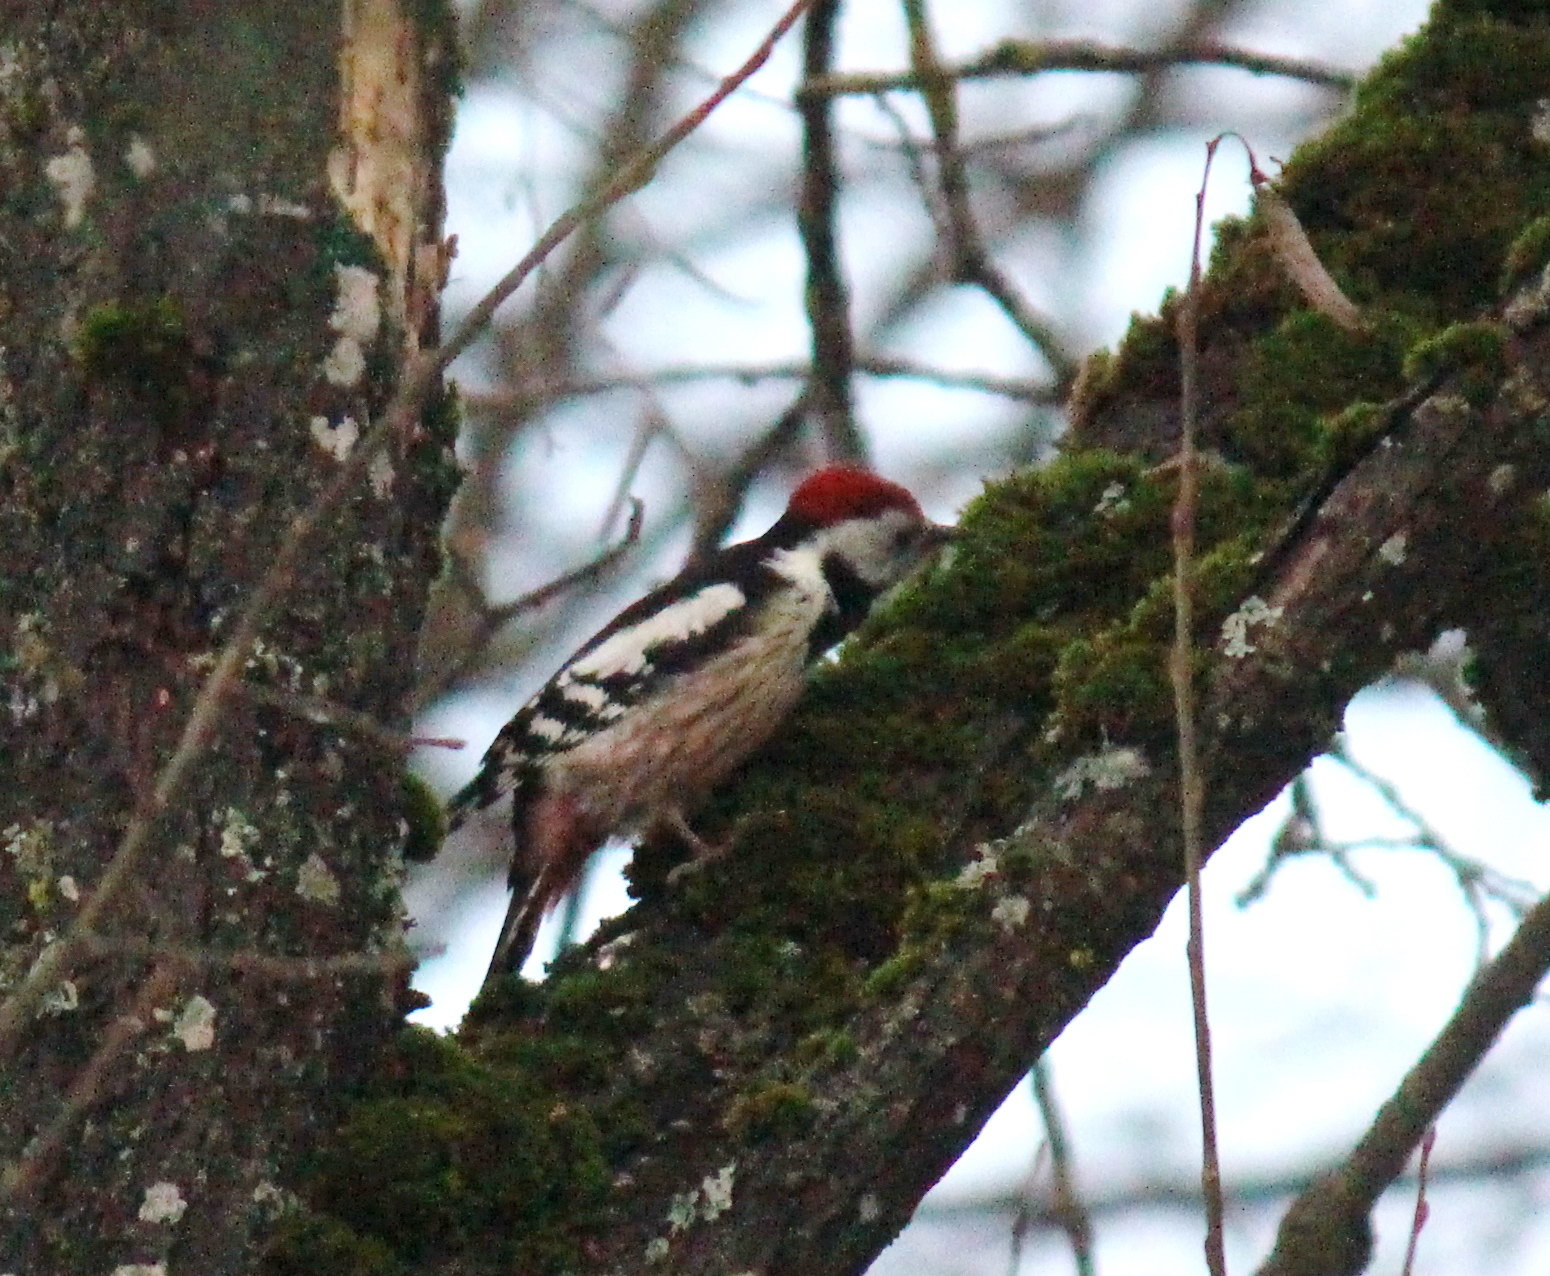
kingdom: Animalia
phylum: Chordata
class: Aves
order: Piciformes
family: Picidae
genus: Dendrocoptes
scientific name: Dendrocoptes medius
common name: Middle spotted woodpecker
